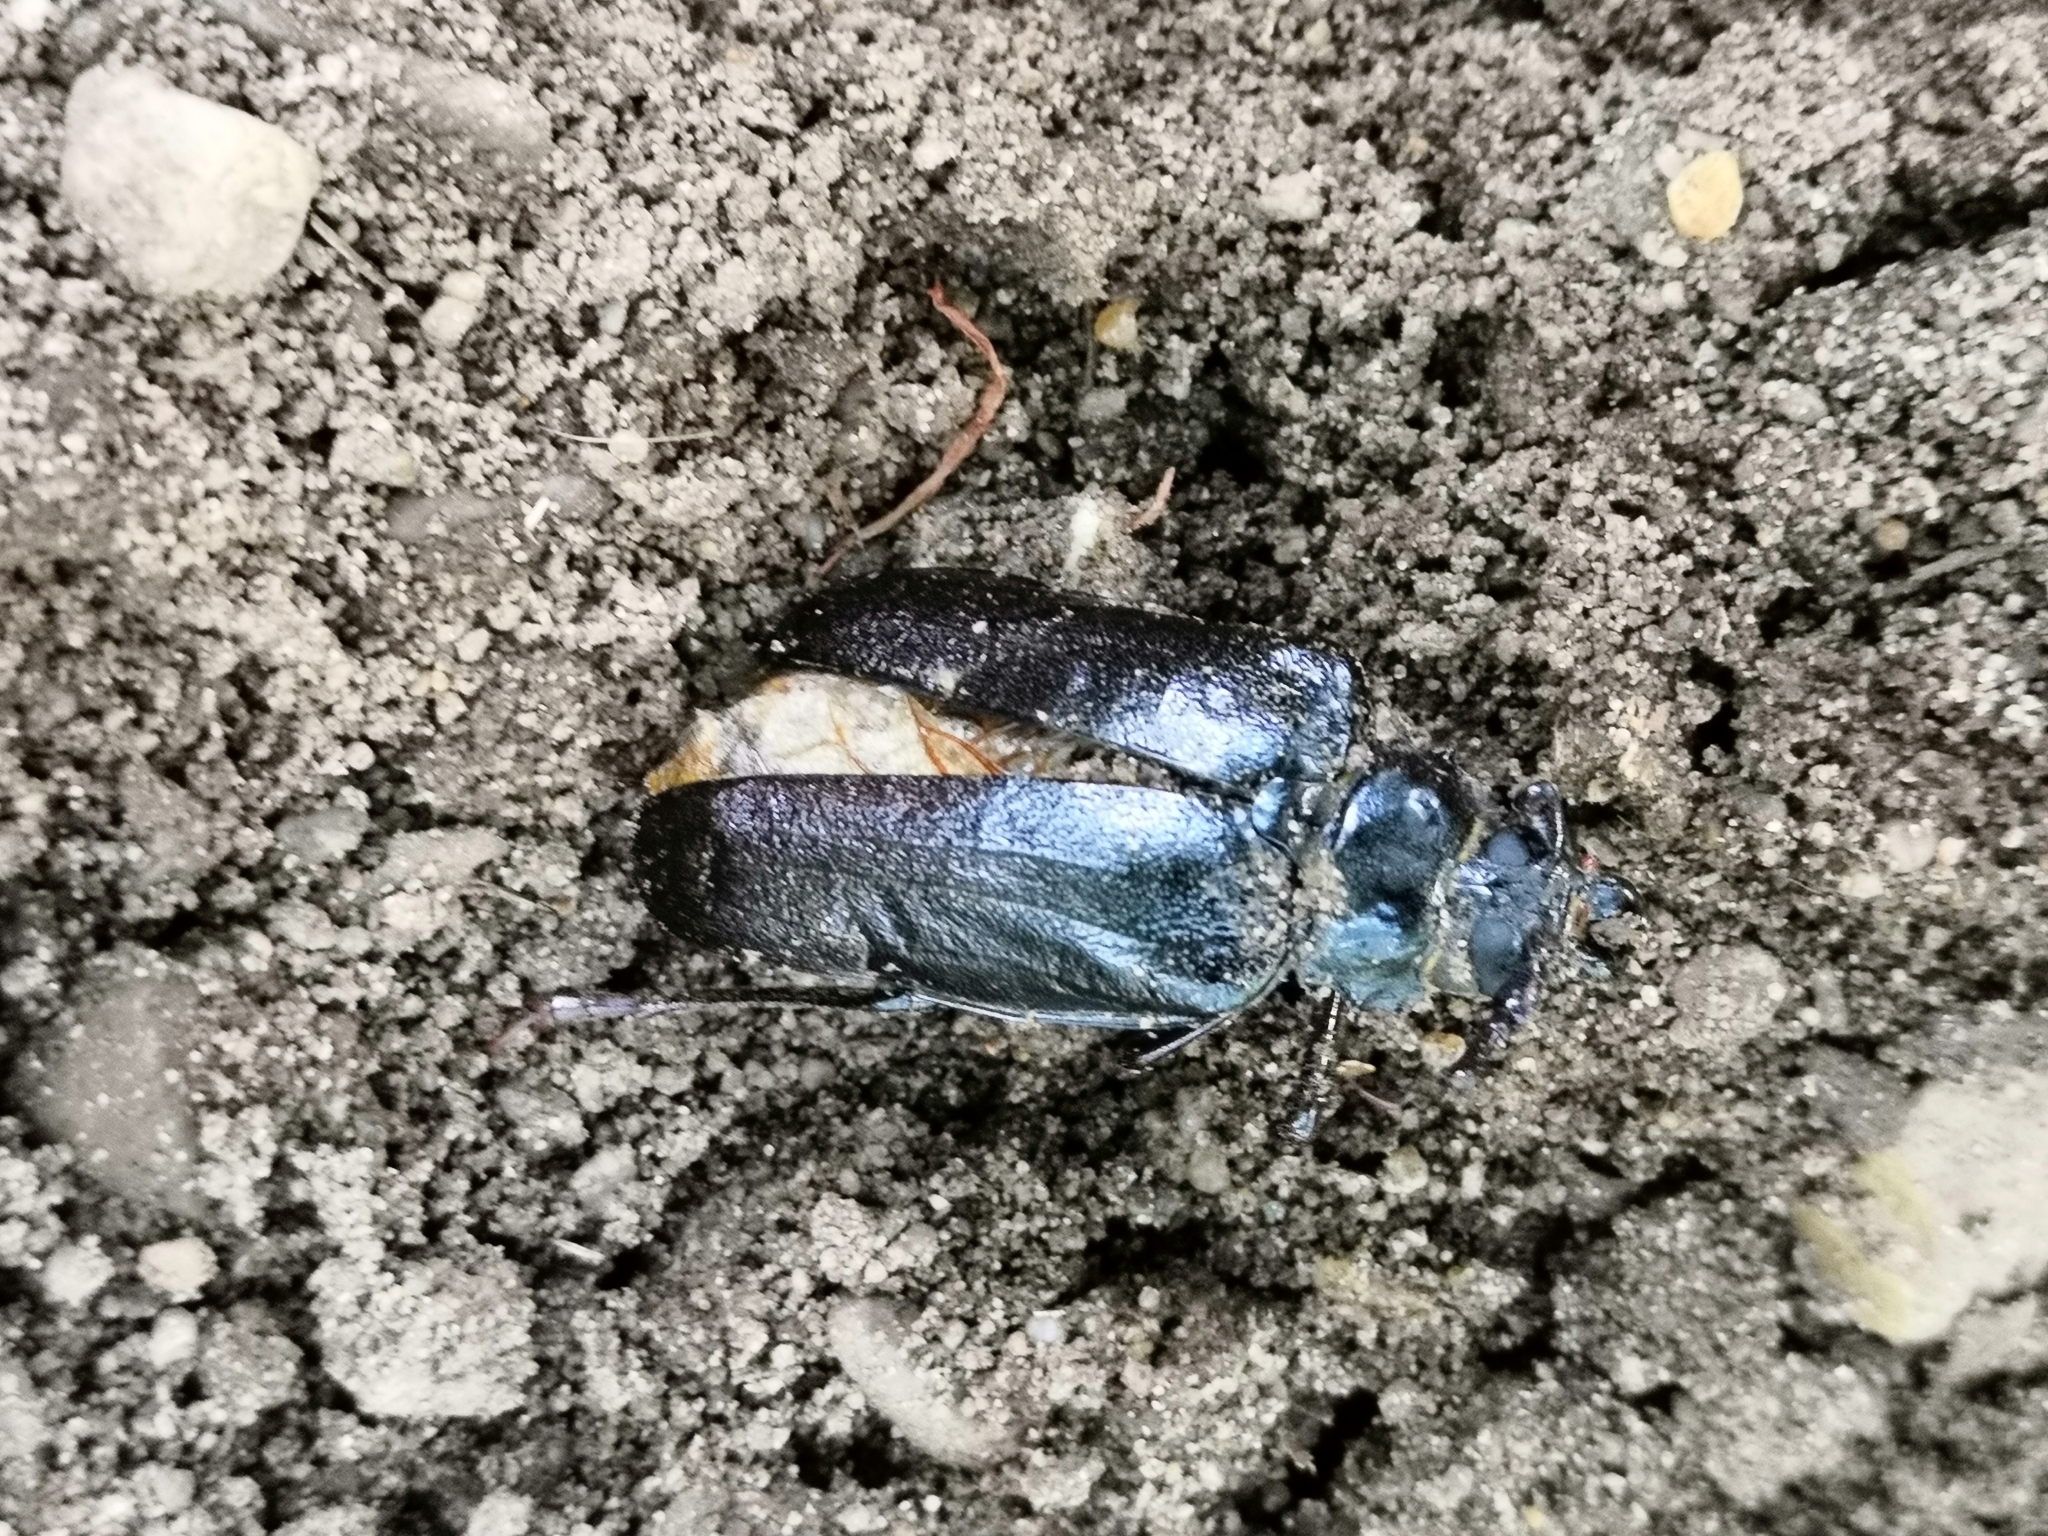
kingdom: Animalia
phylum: Arthropoda
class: Insecta
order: Coleoptera
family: Cerambycidae
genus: Prionus
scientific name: Prionus coriarius
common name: Tanner beetle
